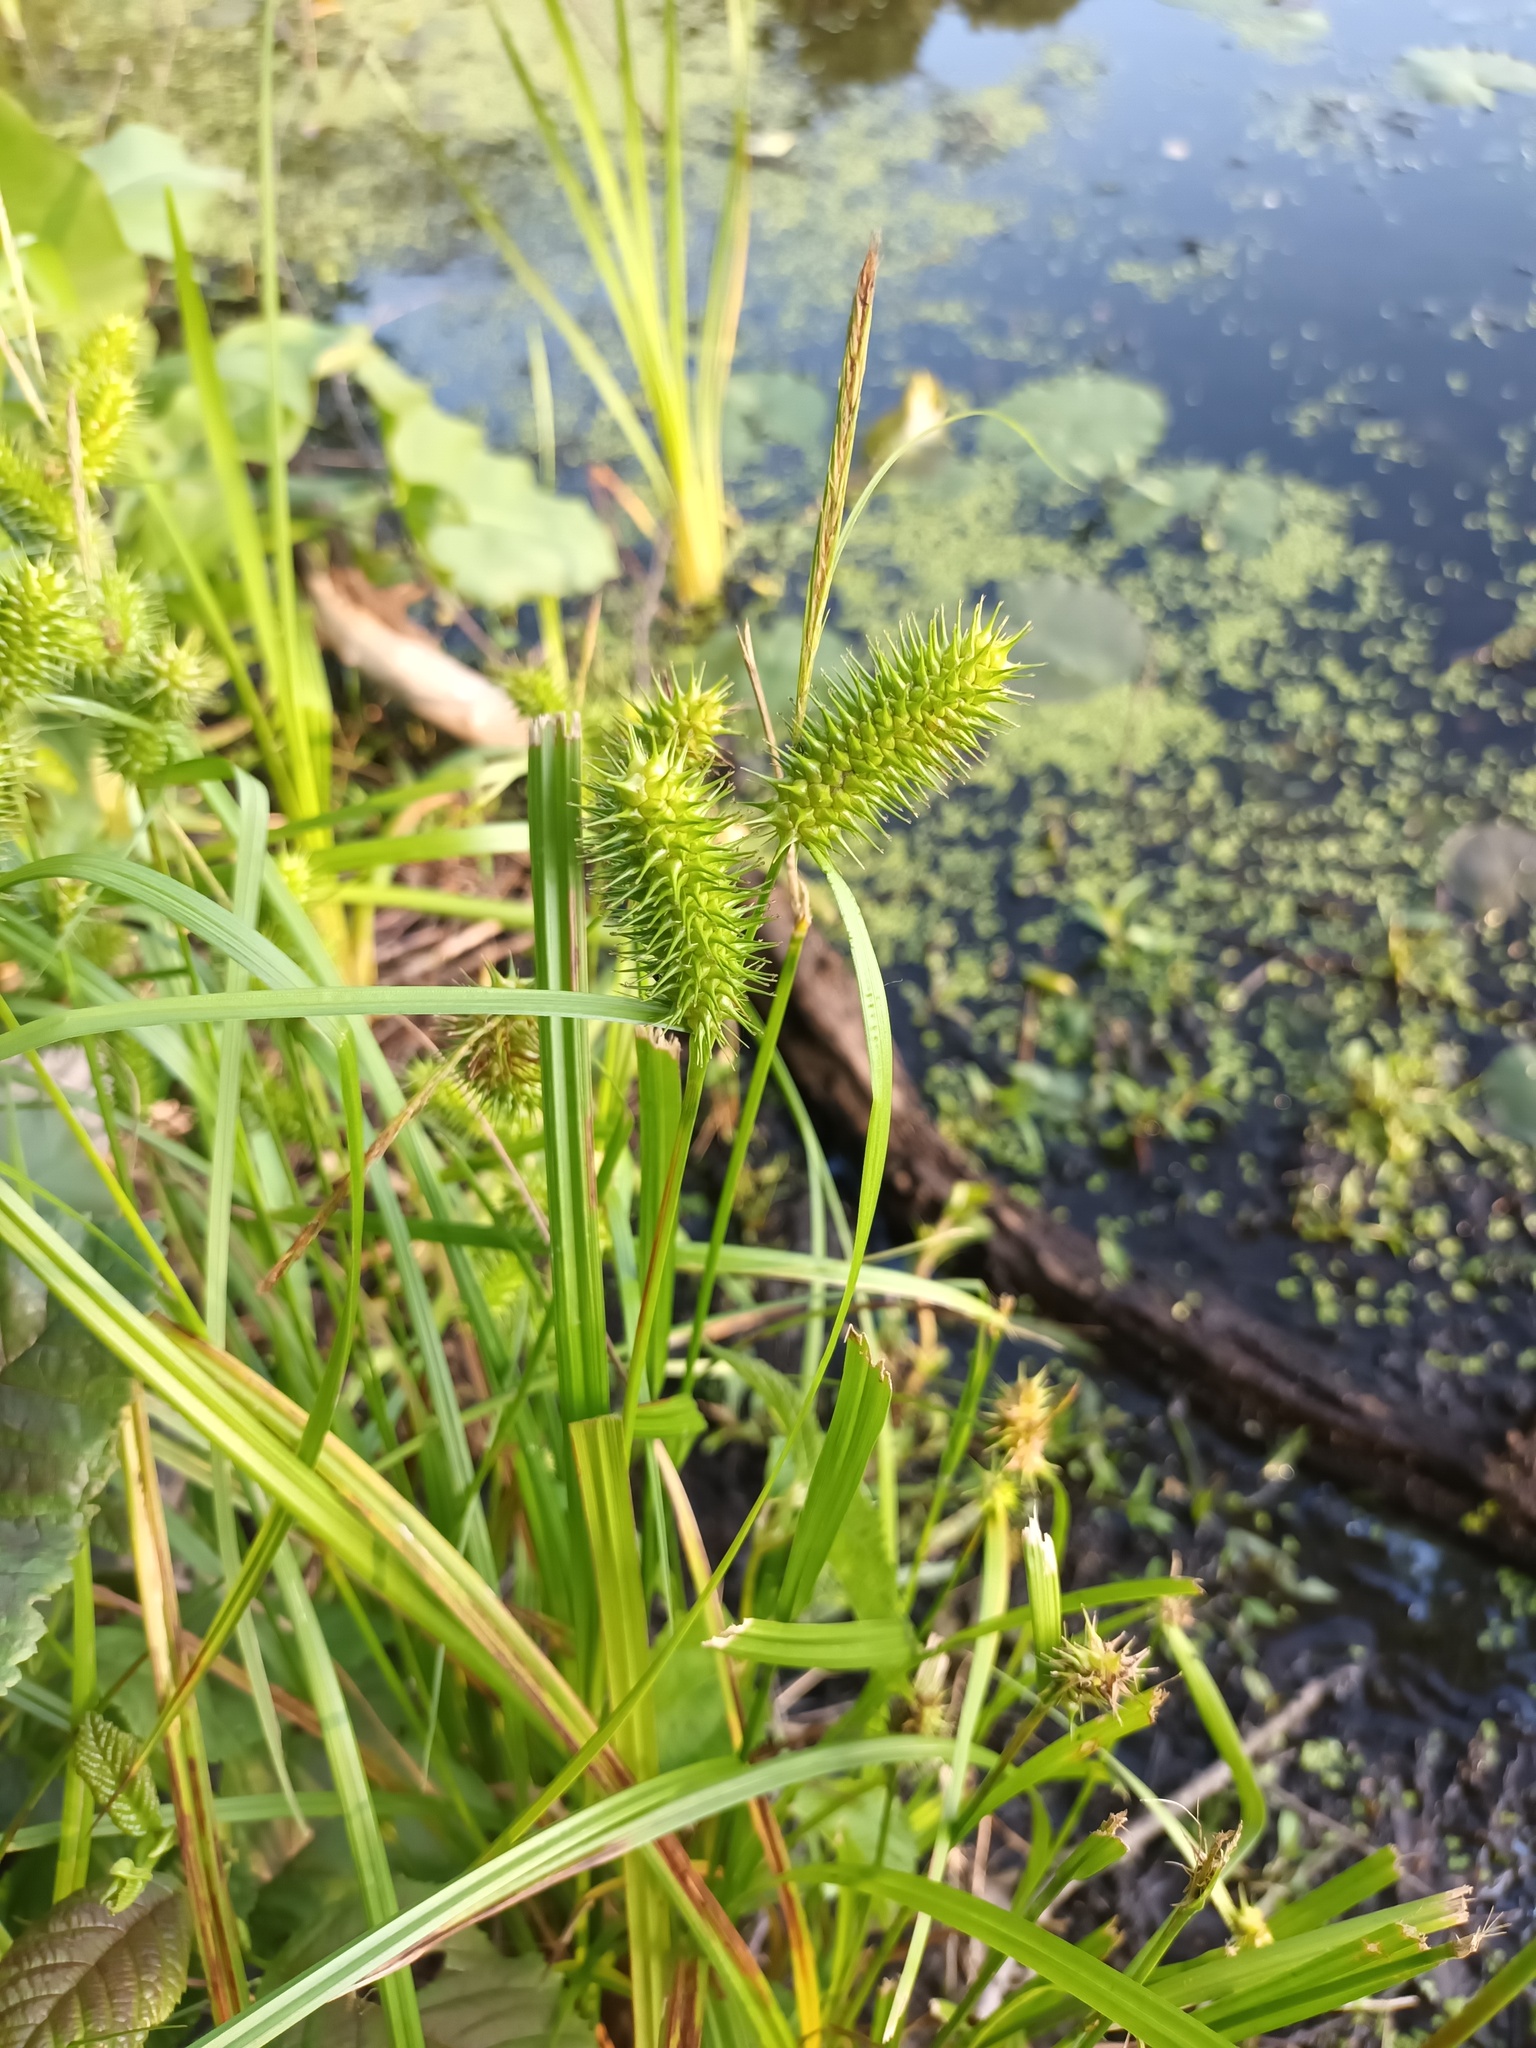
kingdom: Plantae
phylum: Tracheophyta
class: Liliopsida
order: Poales
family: Cyperaceae
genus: Carex
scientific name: Carex lurida
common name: Sallow sedge
